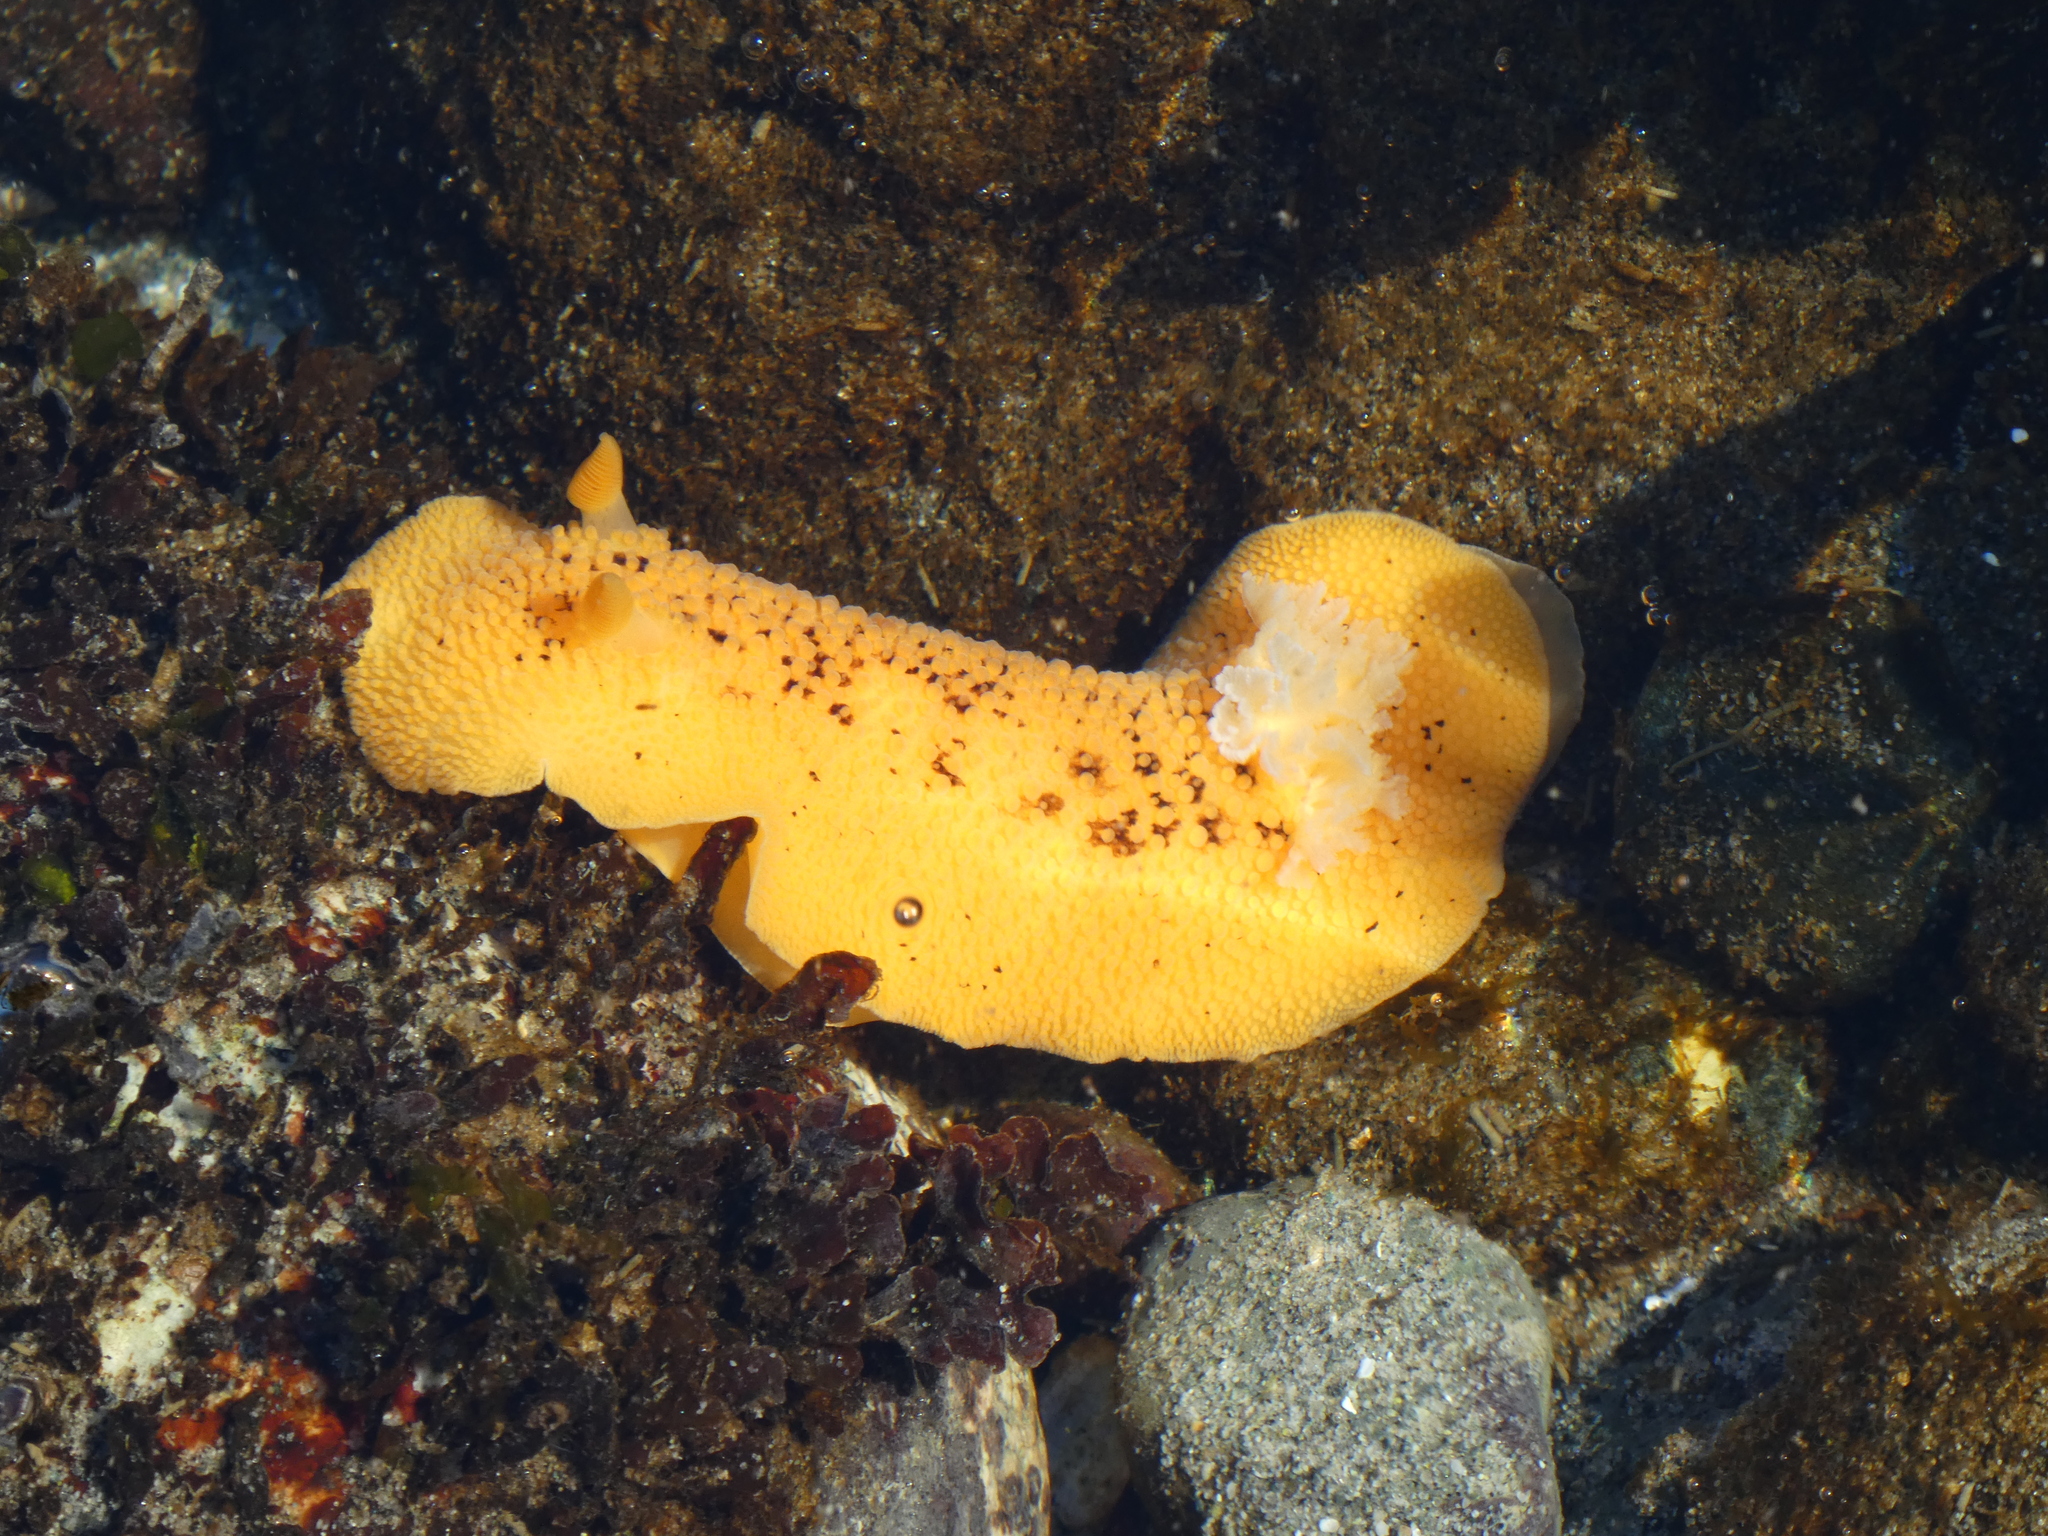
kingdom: Animalia
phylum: Mollusca
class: Gastropoda
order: Nudibranchia
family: Discodorididae
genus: Peltodoris
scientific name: Peltodoris nobilis
